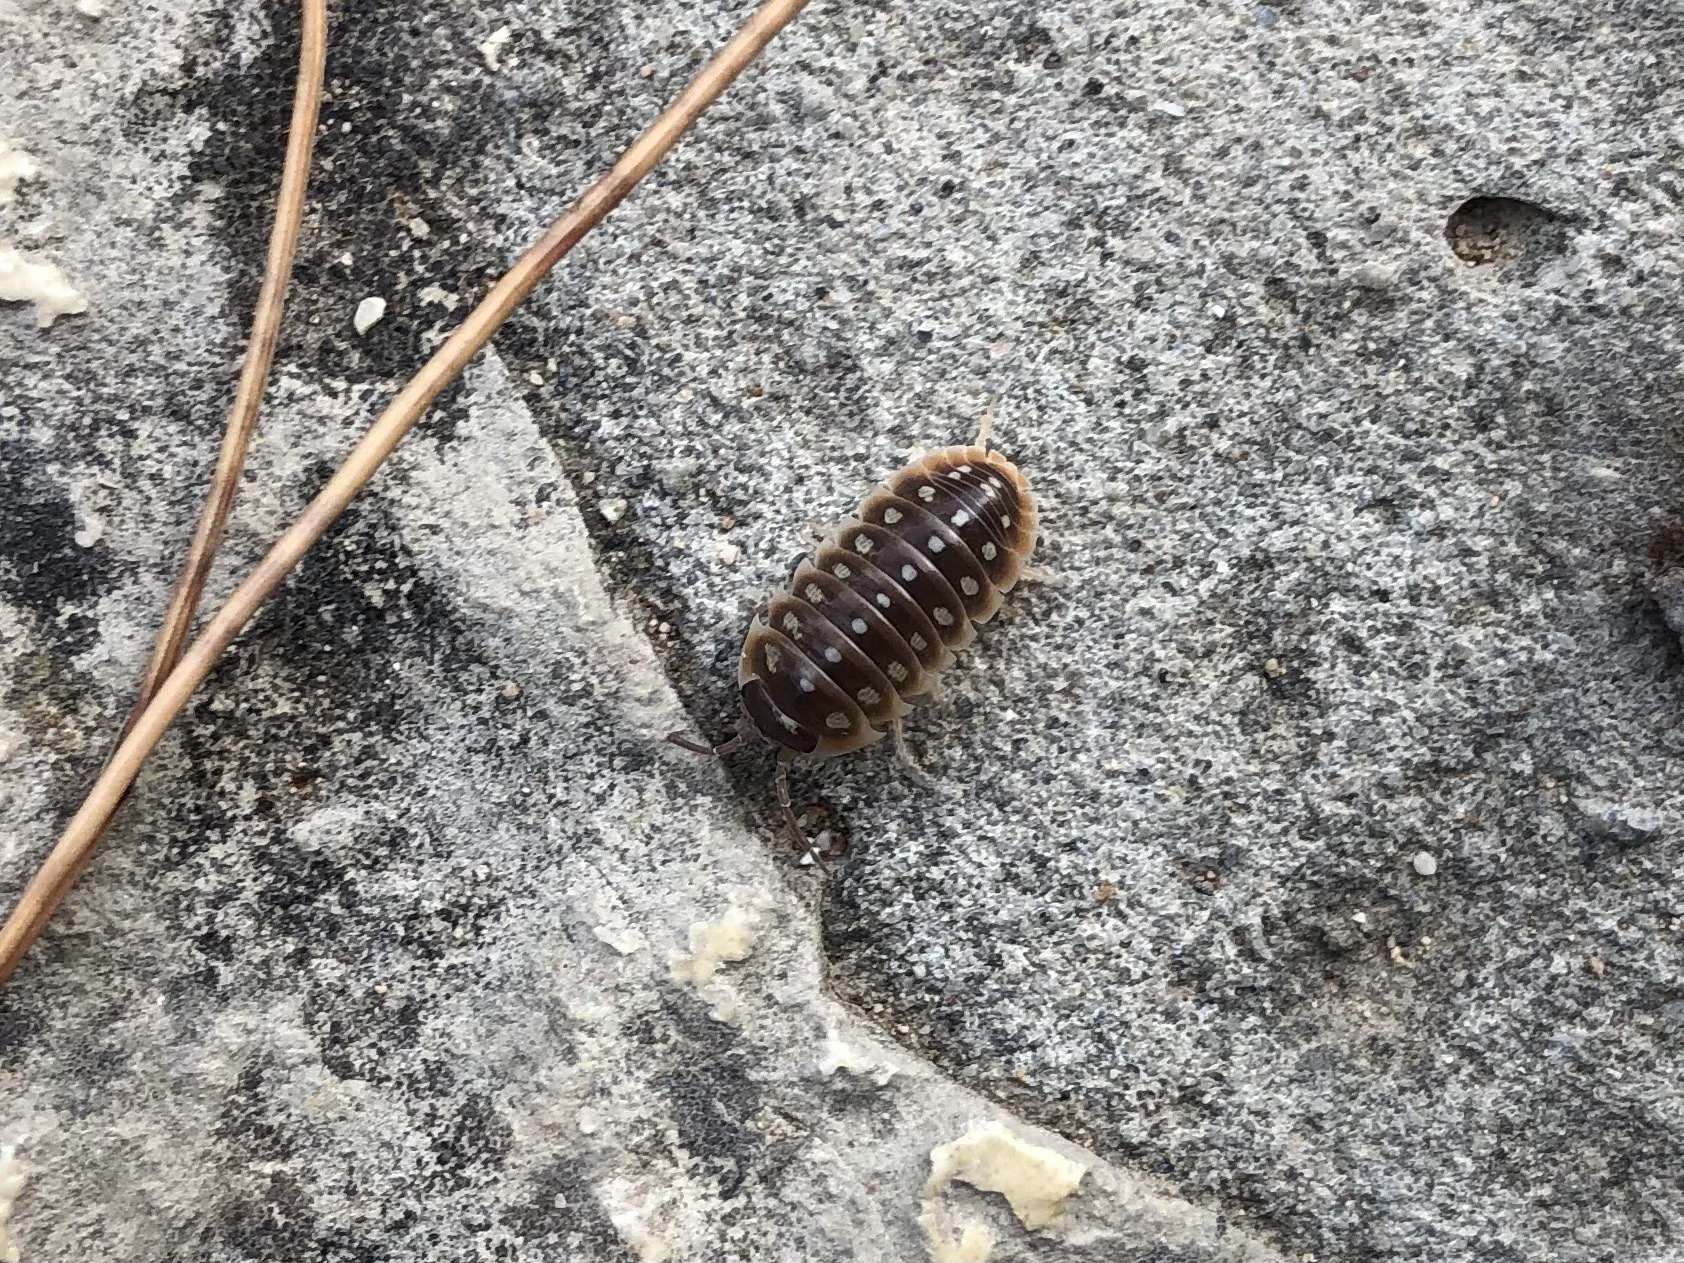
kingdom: Animalia
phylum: Arthropoda
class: Malacostraca
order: Isopoda
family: Armadillidiidae
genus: Armadillidium
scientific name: Armadillidium klugii
